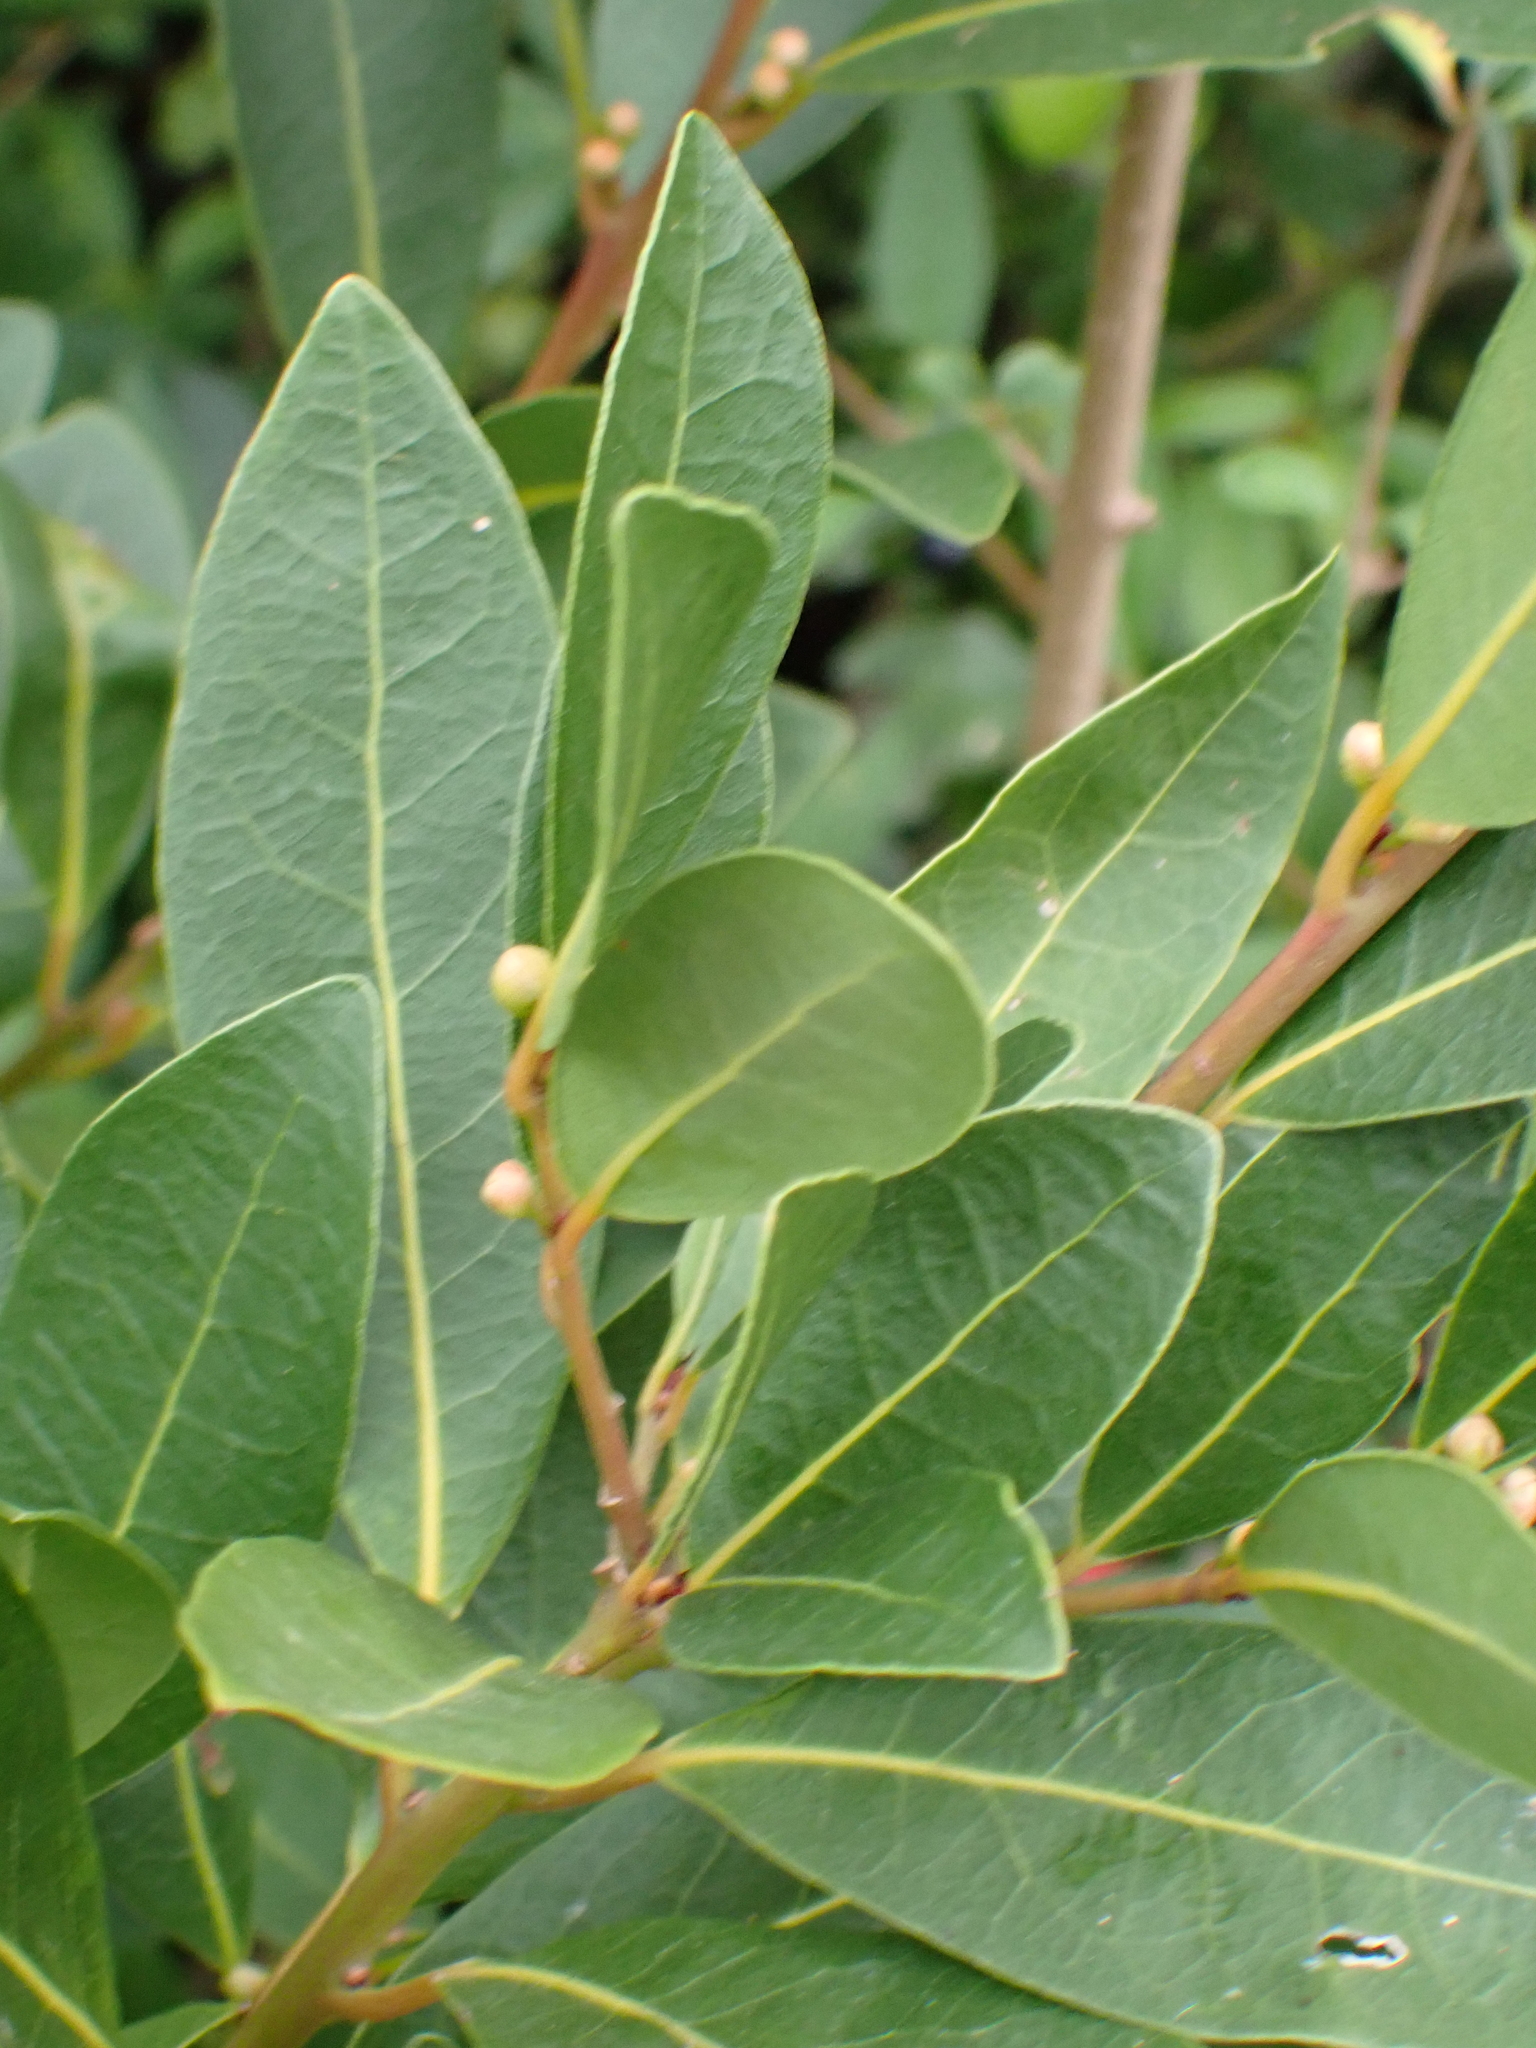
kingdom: Plantae
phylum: Tracheophyta
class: Magnoliopsida
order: Laurales
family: Lauraceae
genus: Laurus
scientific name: Laurus nobilis
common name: Bay
